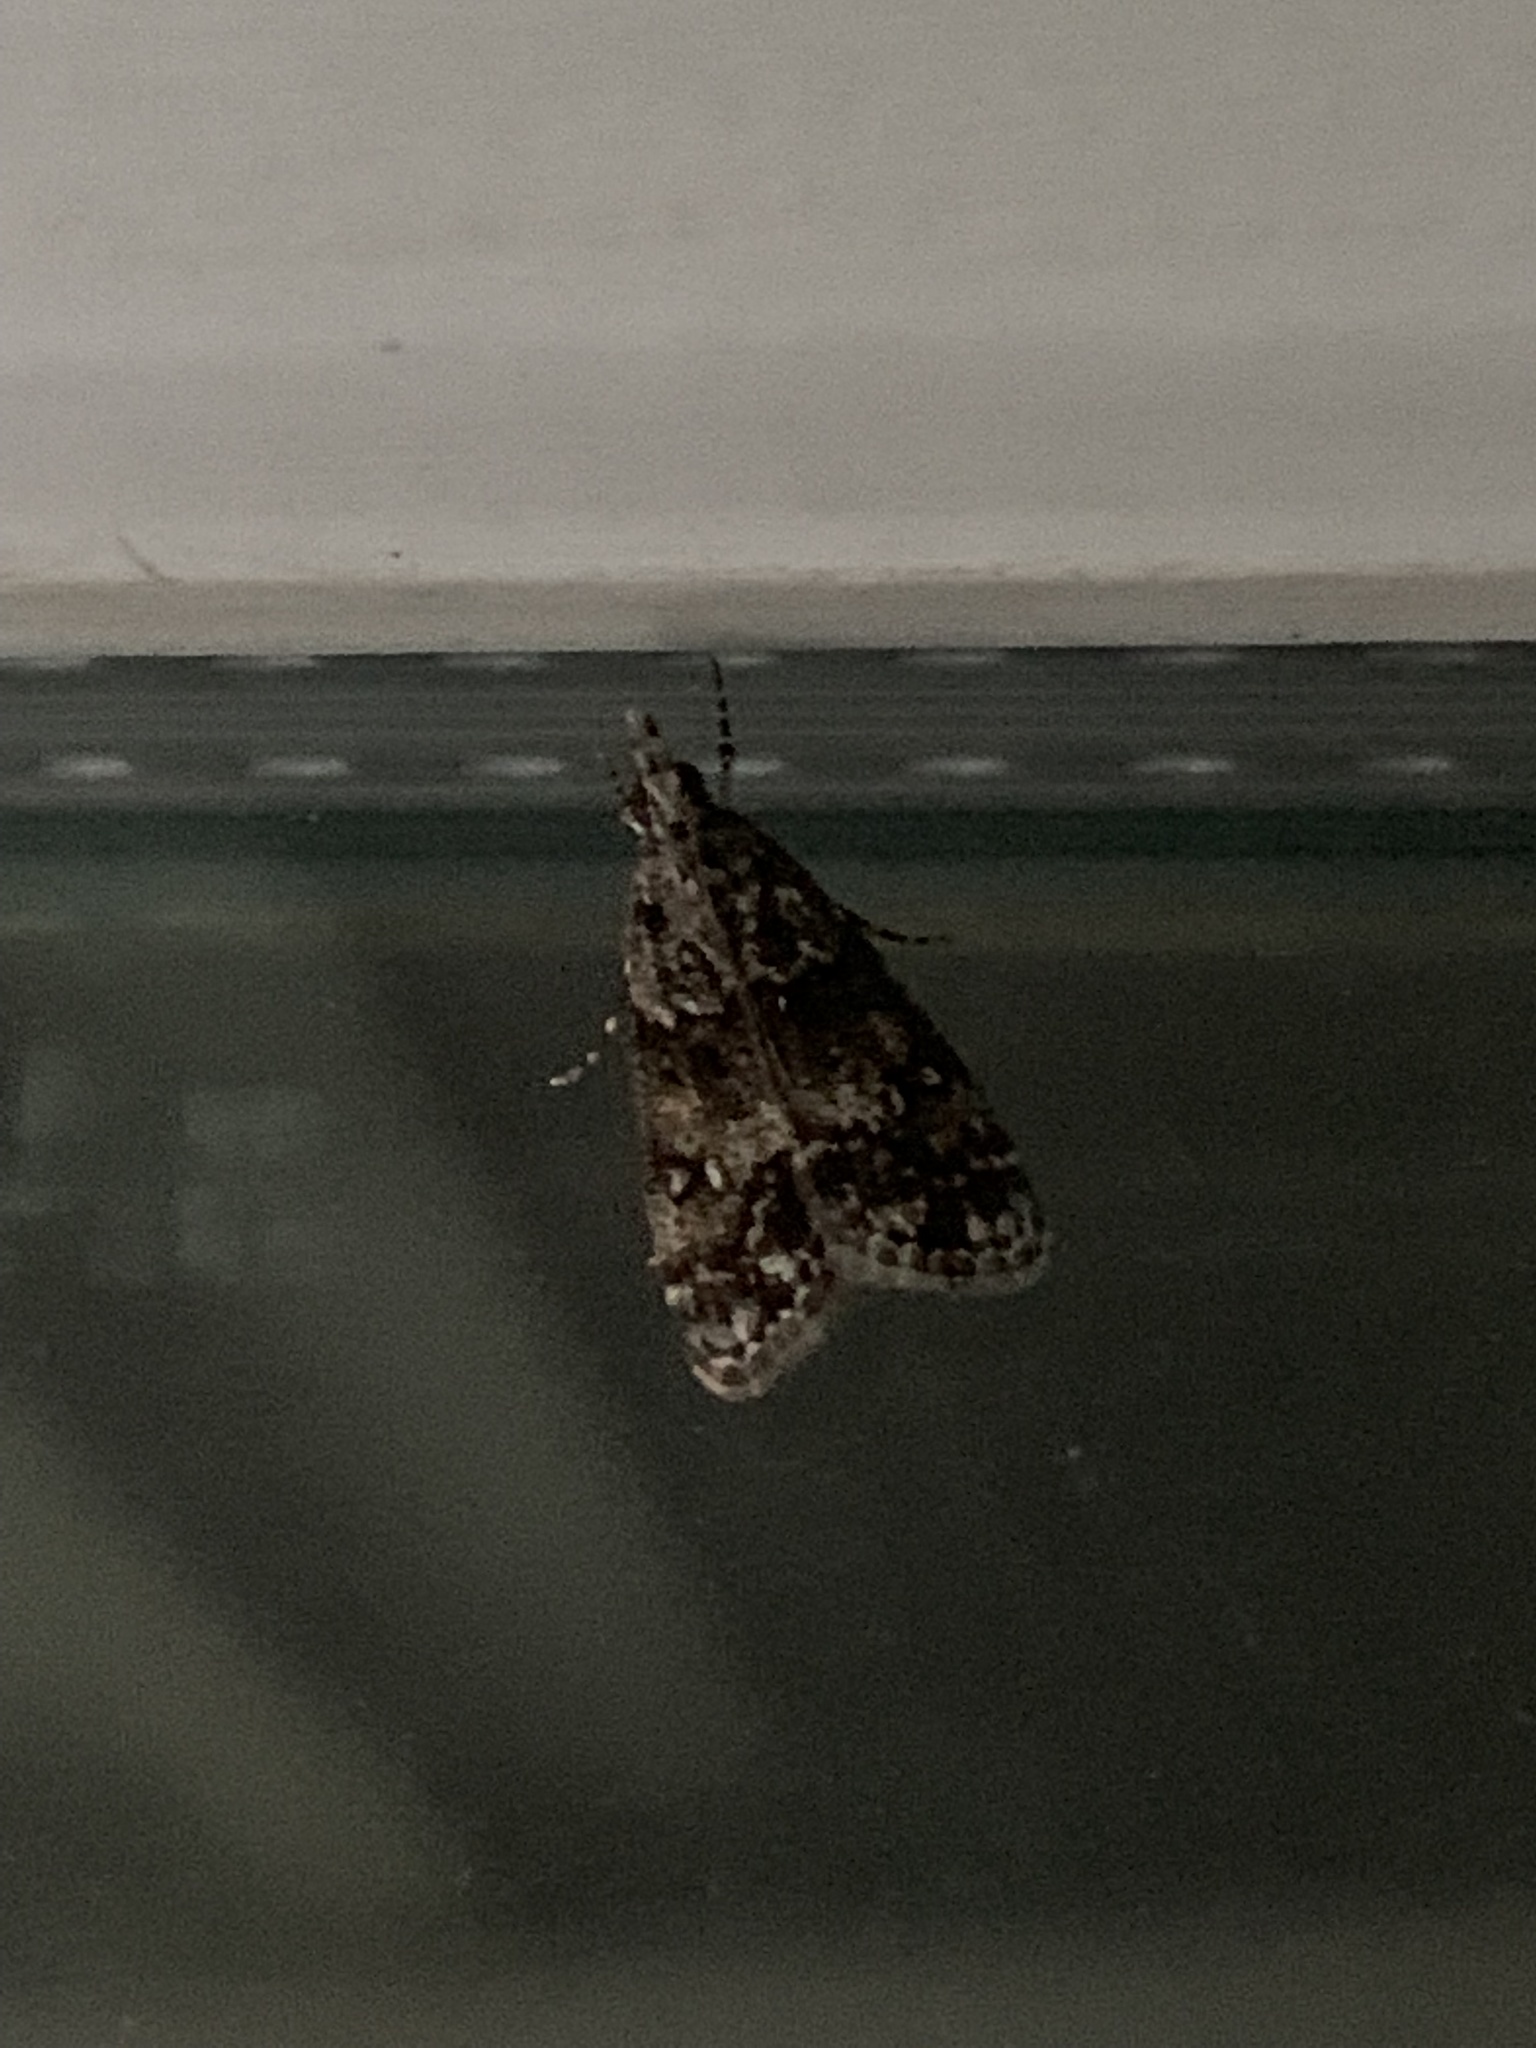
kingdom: Animalia
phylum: Arthropoda
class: Insecta
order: Lepidoptera
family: Crambidae
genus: Eudonia
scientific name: Eudonia lacustrata
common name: Little grey
